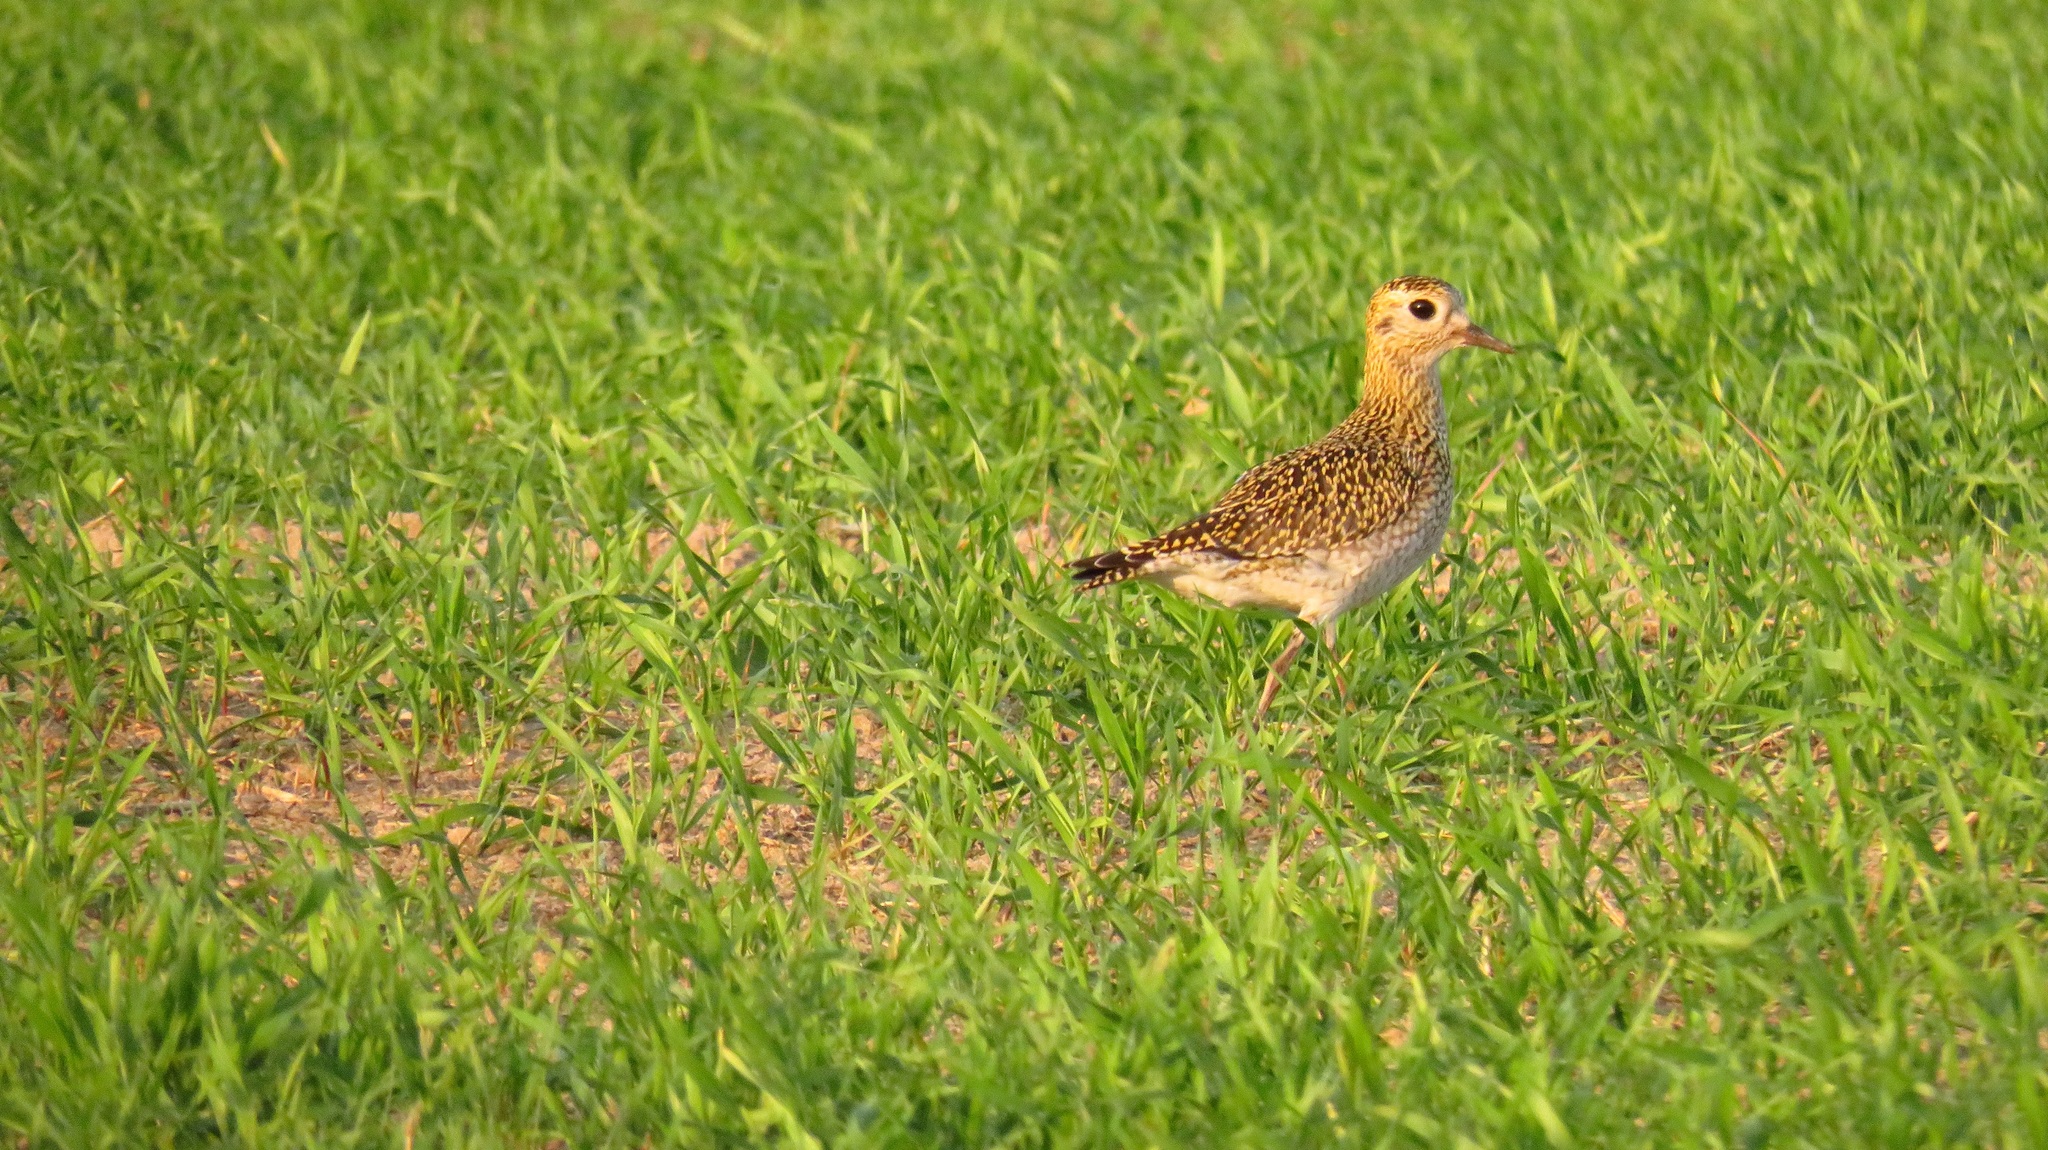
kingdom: Animalia
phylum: Chordata
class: Aves
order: Charadriiformes
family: Charadriidae
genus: Pluvialis
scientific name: Pluvialis apricaria
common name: European golden plover
